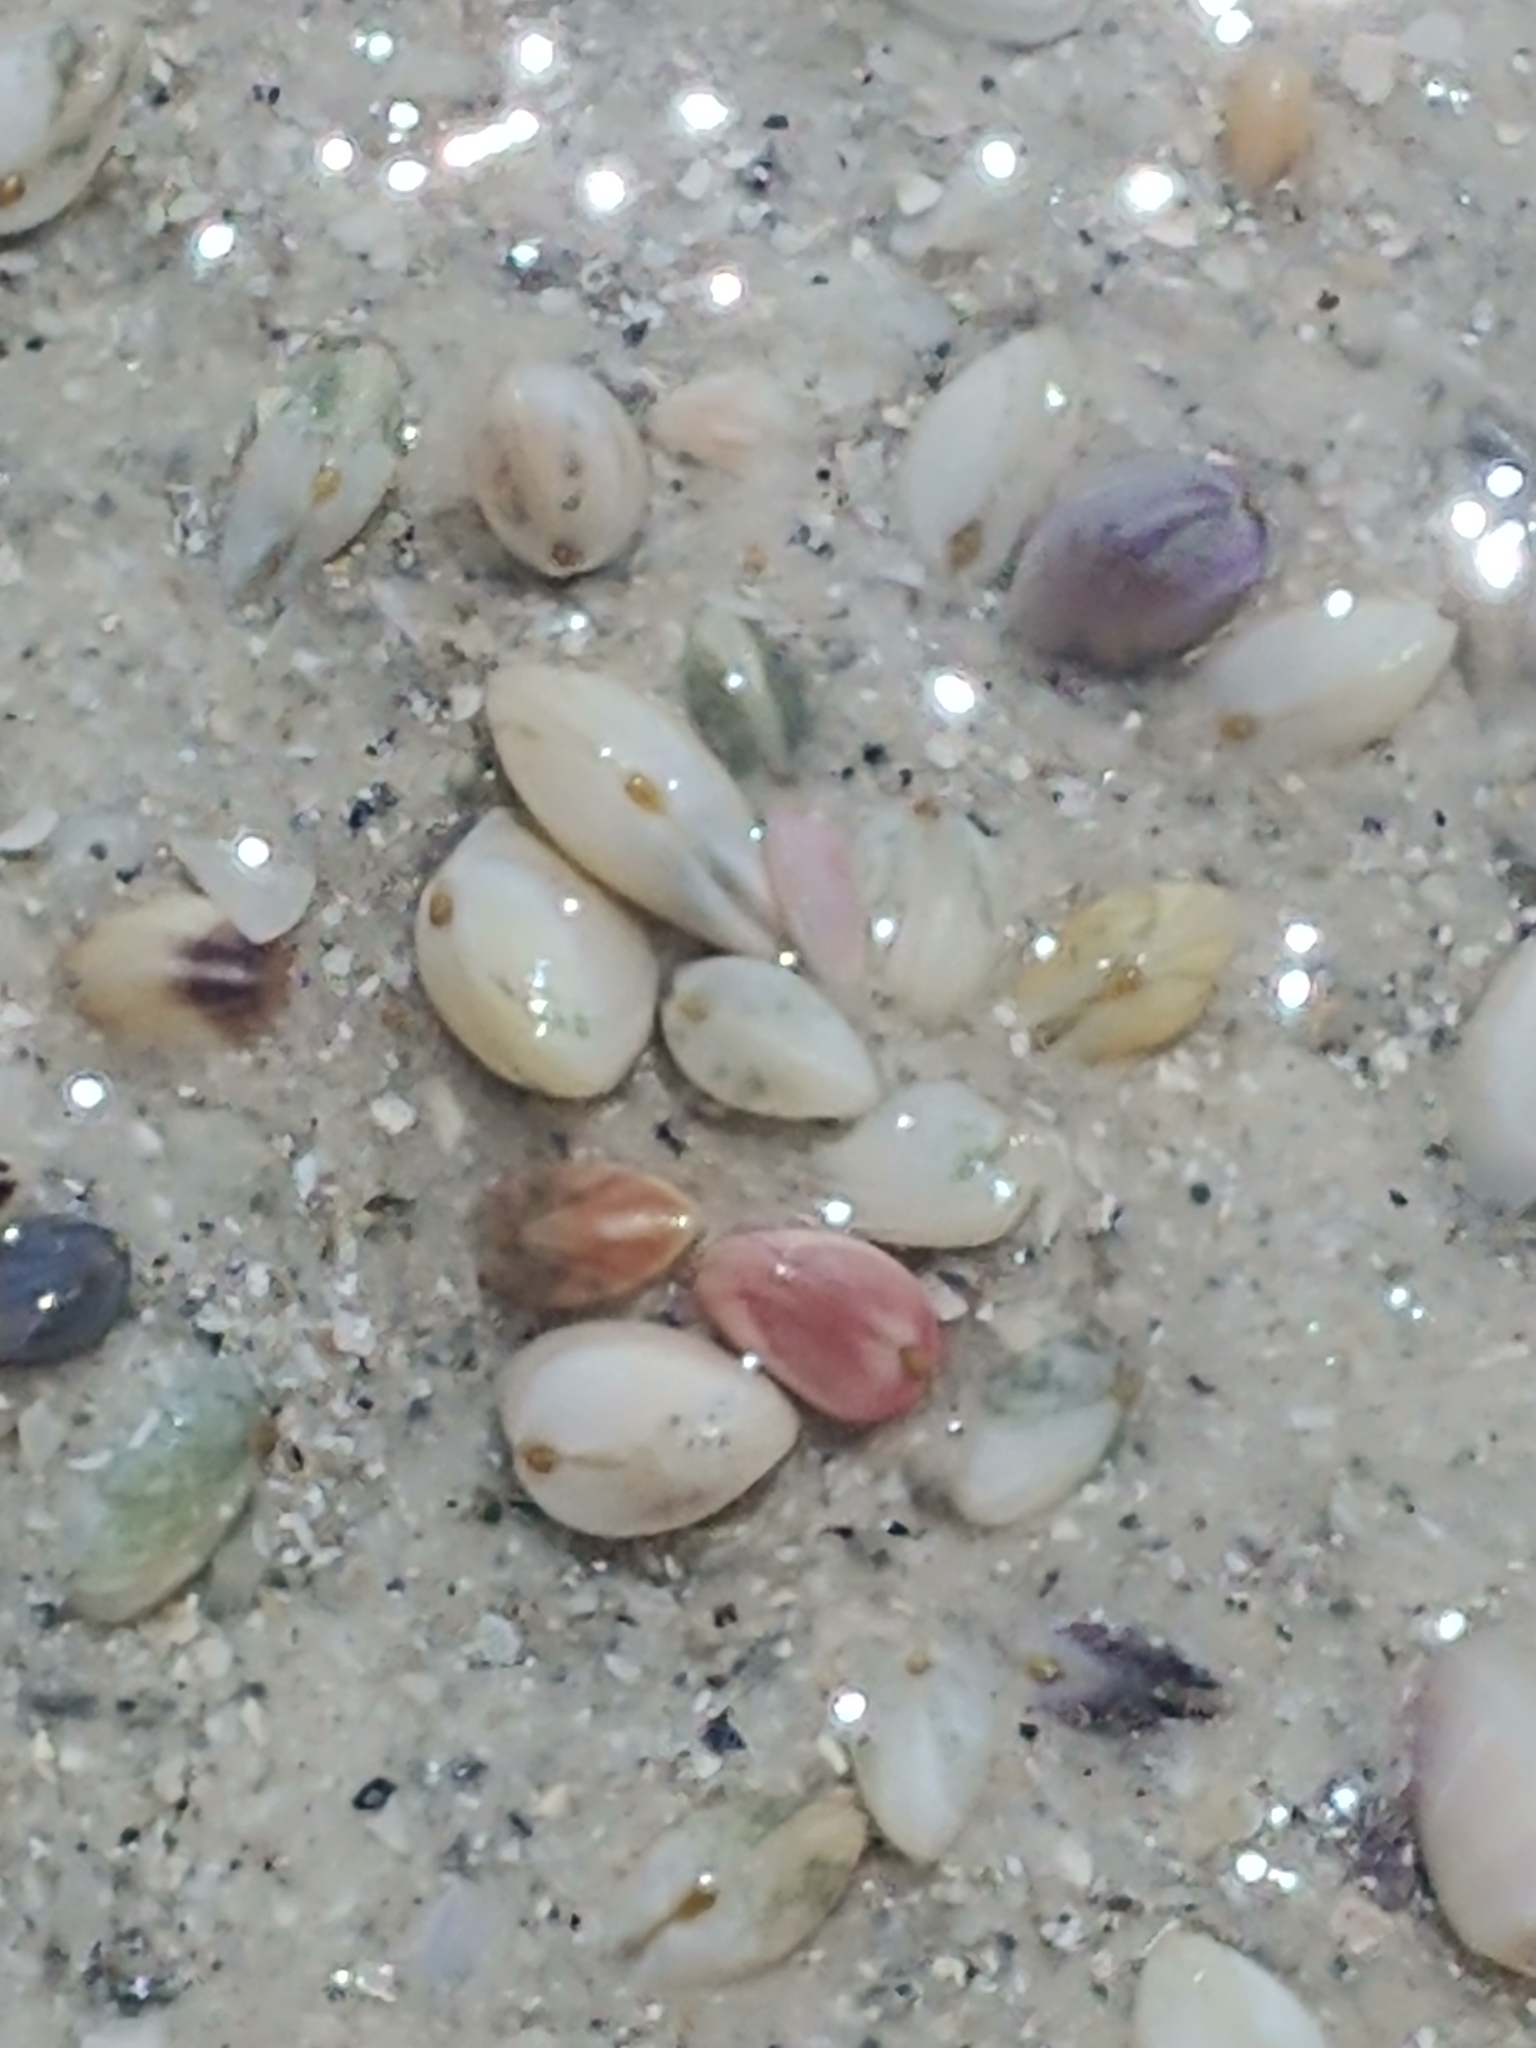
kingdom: Animalia
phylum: Mollusca
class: Bivalvia
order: Cardiida
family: Donacidae
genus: Donax
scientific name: Donax variabilis
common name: Butterfly shell
